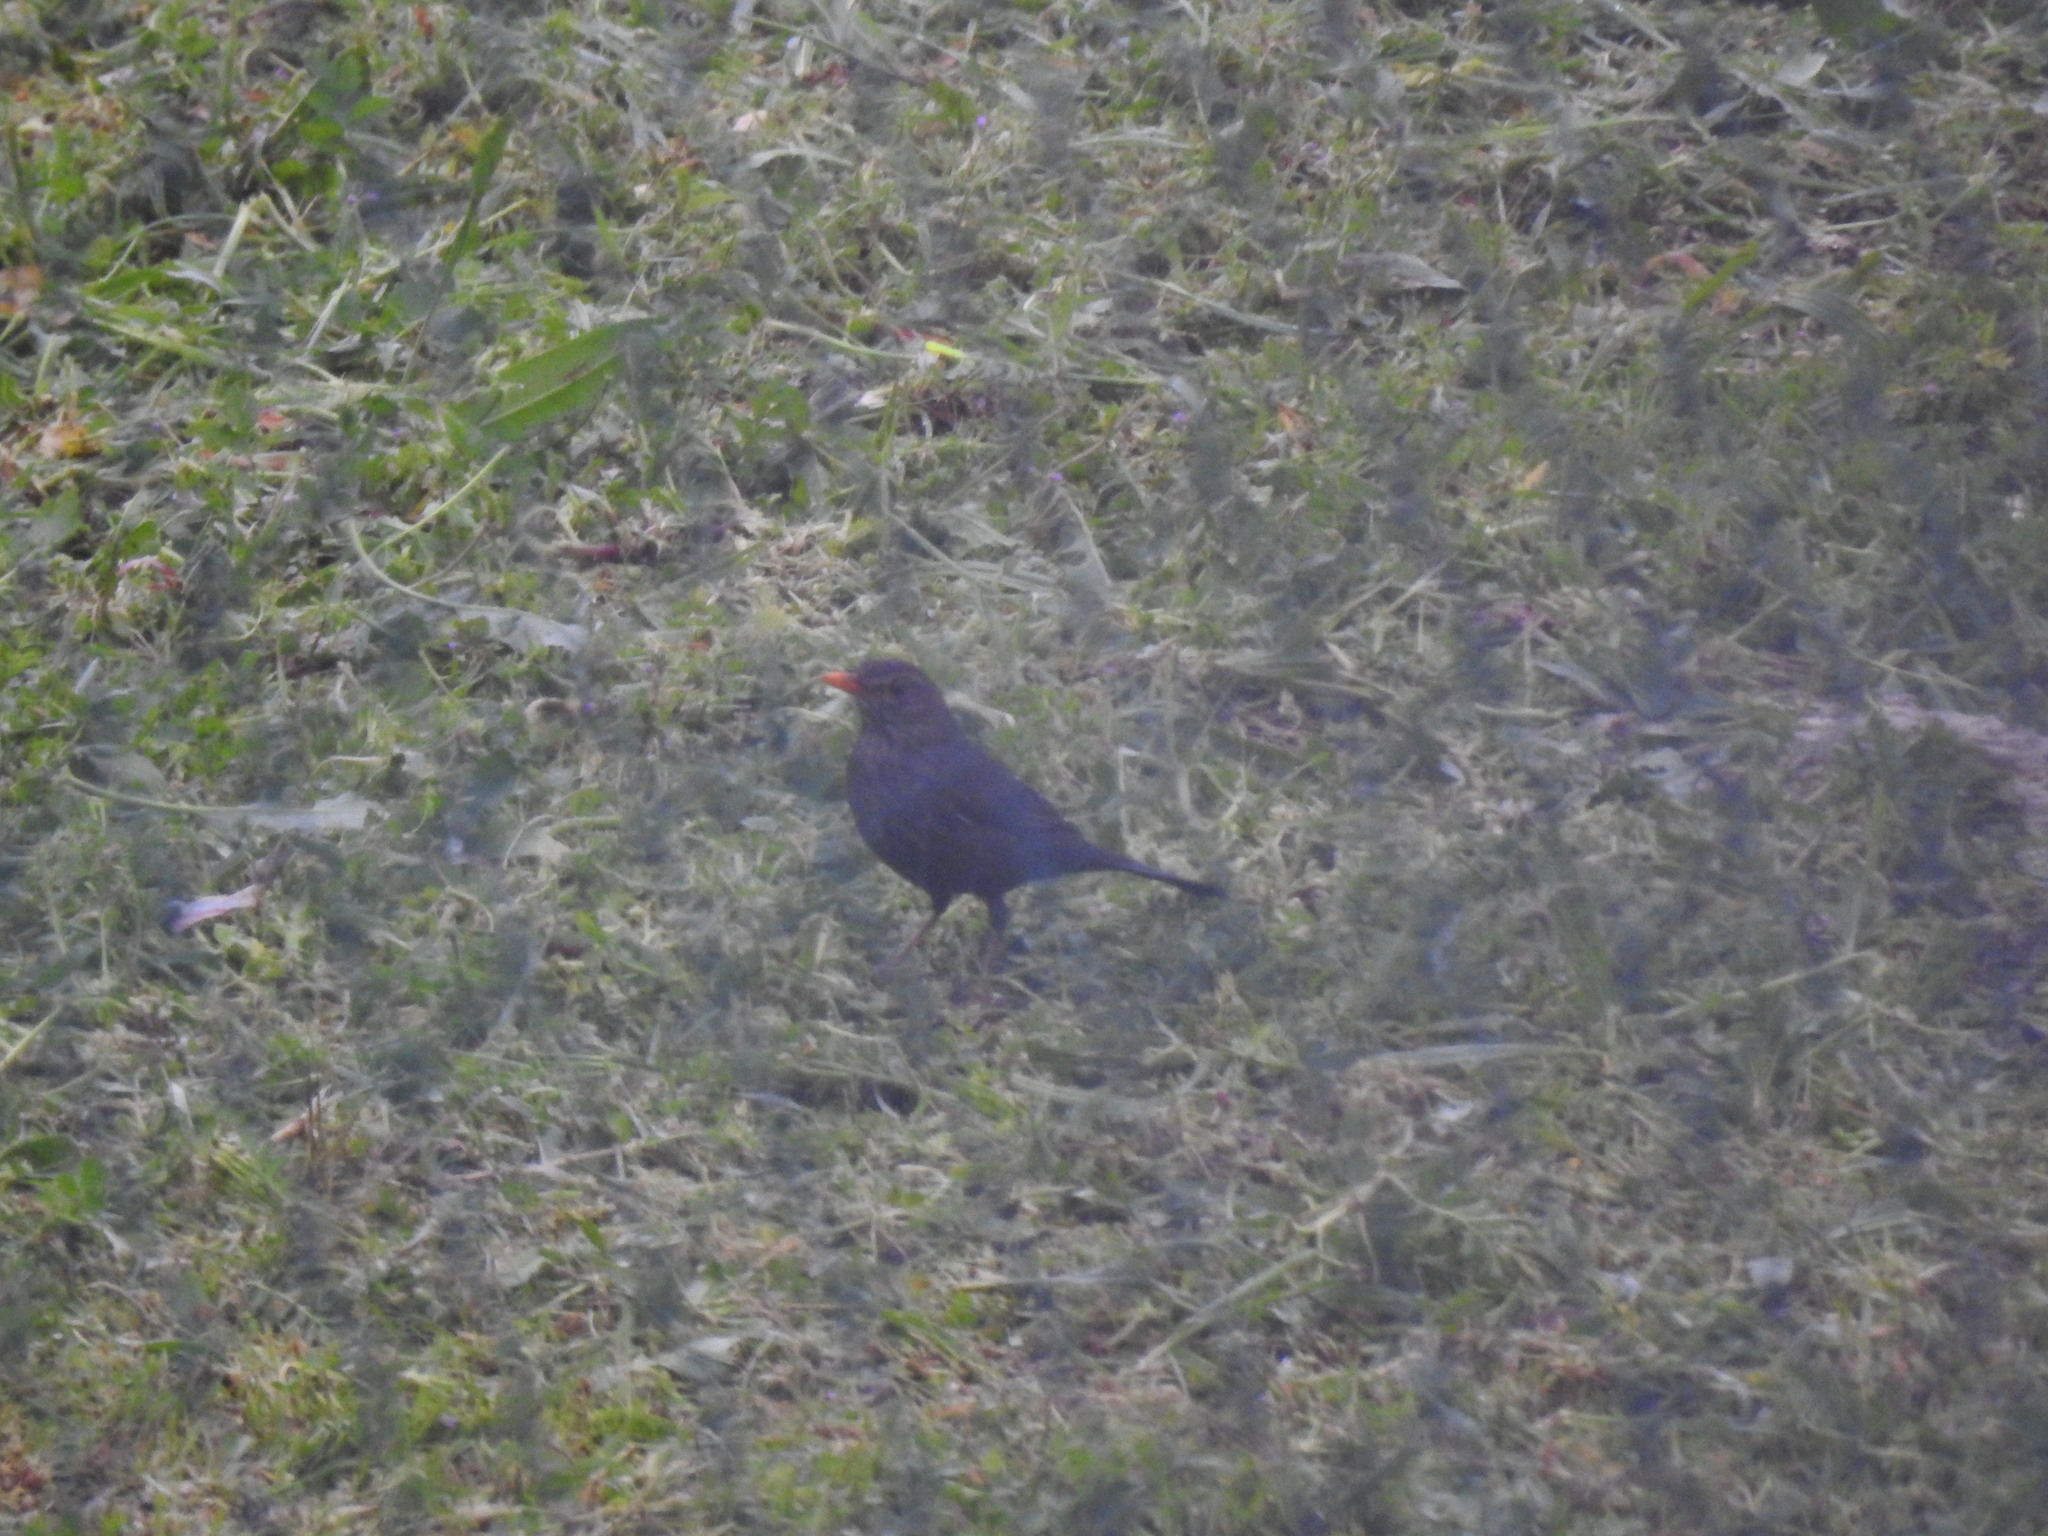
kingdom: Animalia
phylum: Chordata
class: Aves
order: Passeriformes
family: Turdidae
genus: Turdus
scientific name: Turdus merula
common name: Common blackbird
